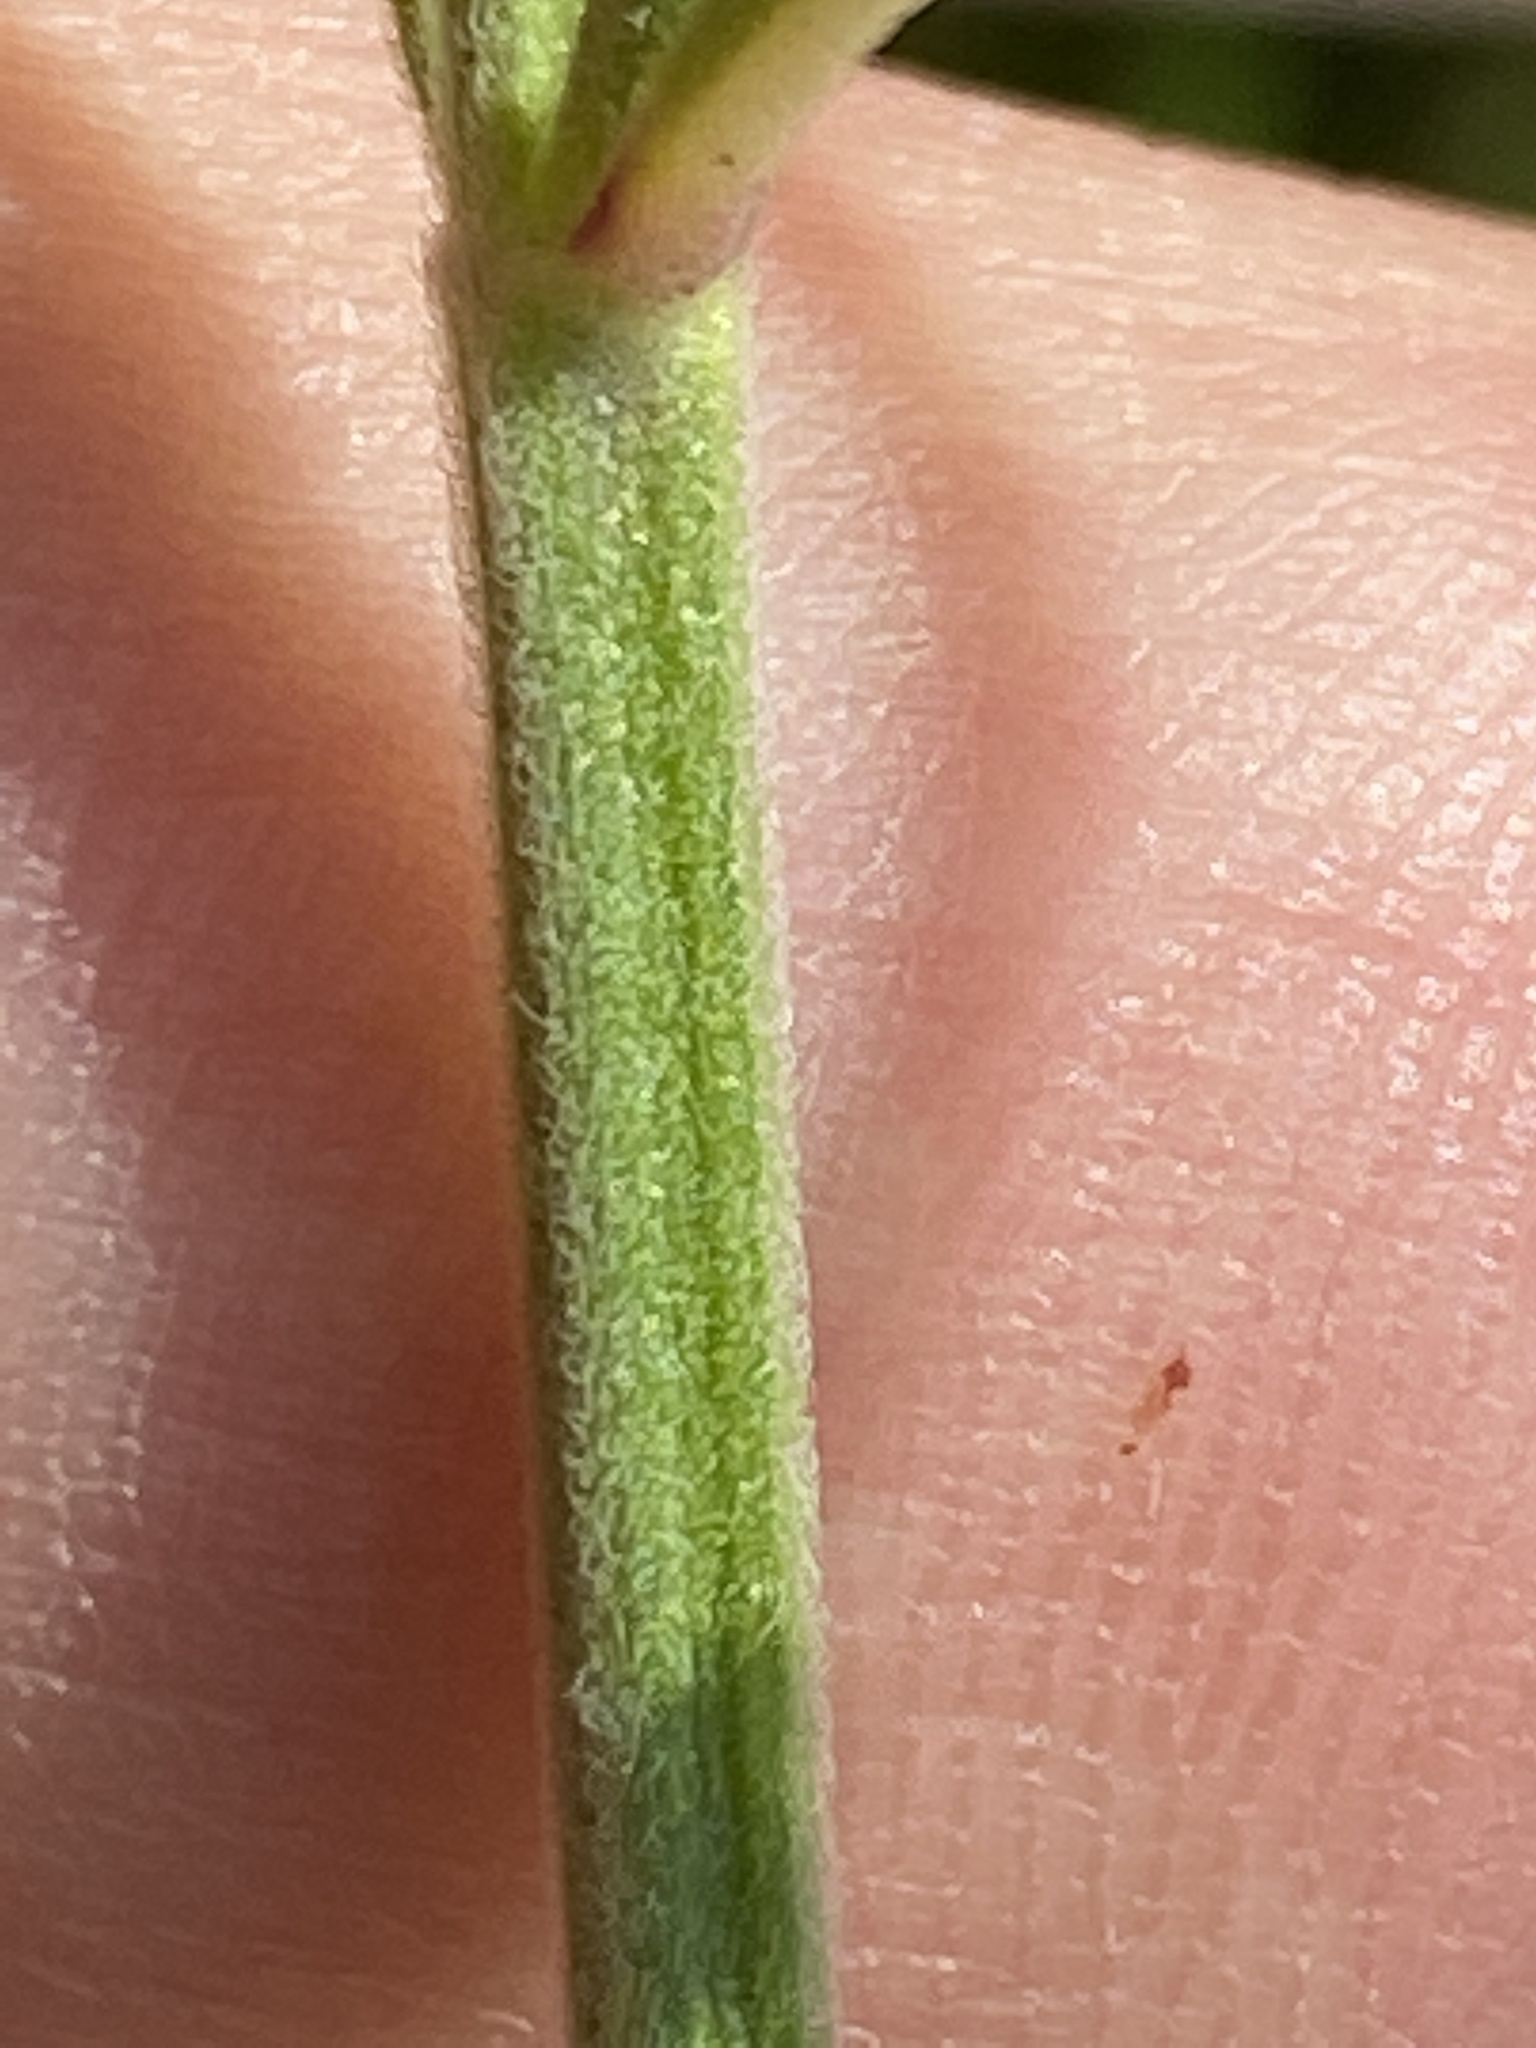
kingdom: Plantae
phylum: Tracheophyta
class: Magnoliopsida
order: Lamiales
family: Lamiaceae
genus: Scutellaria
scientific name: Scutellaria integrifolia
